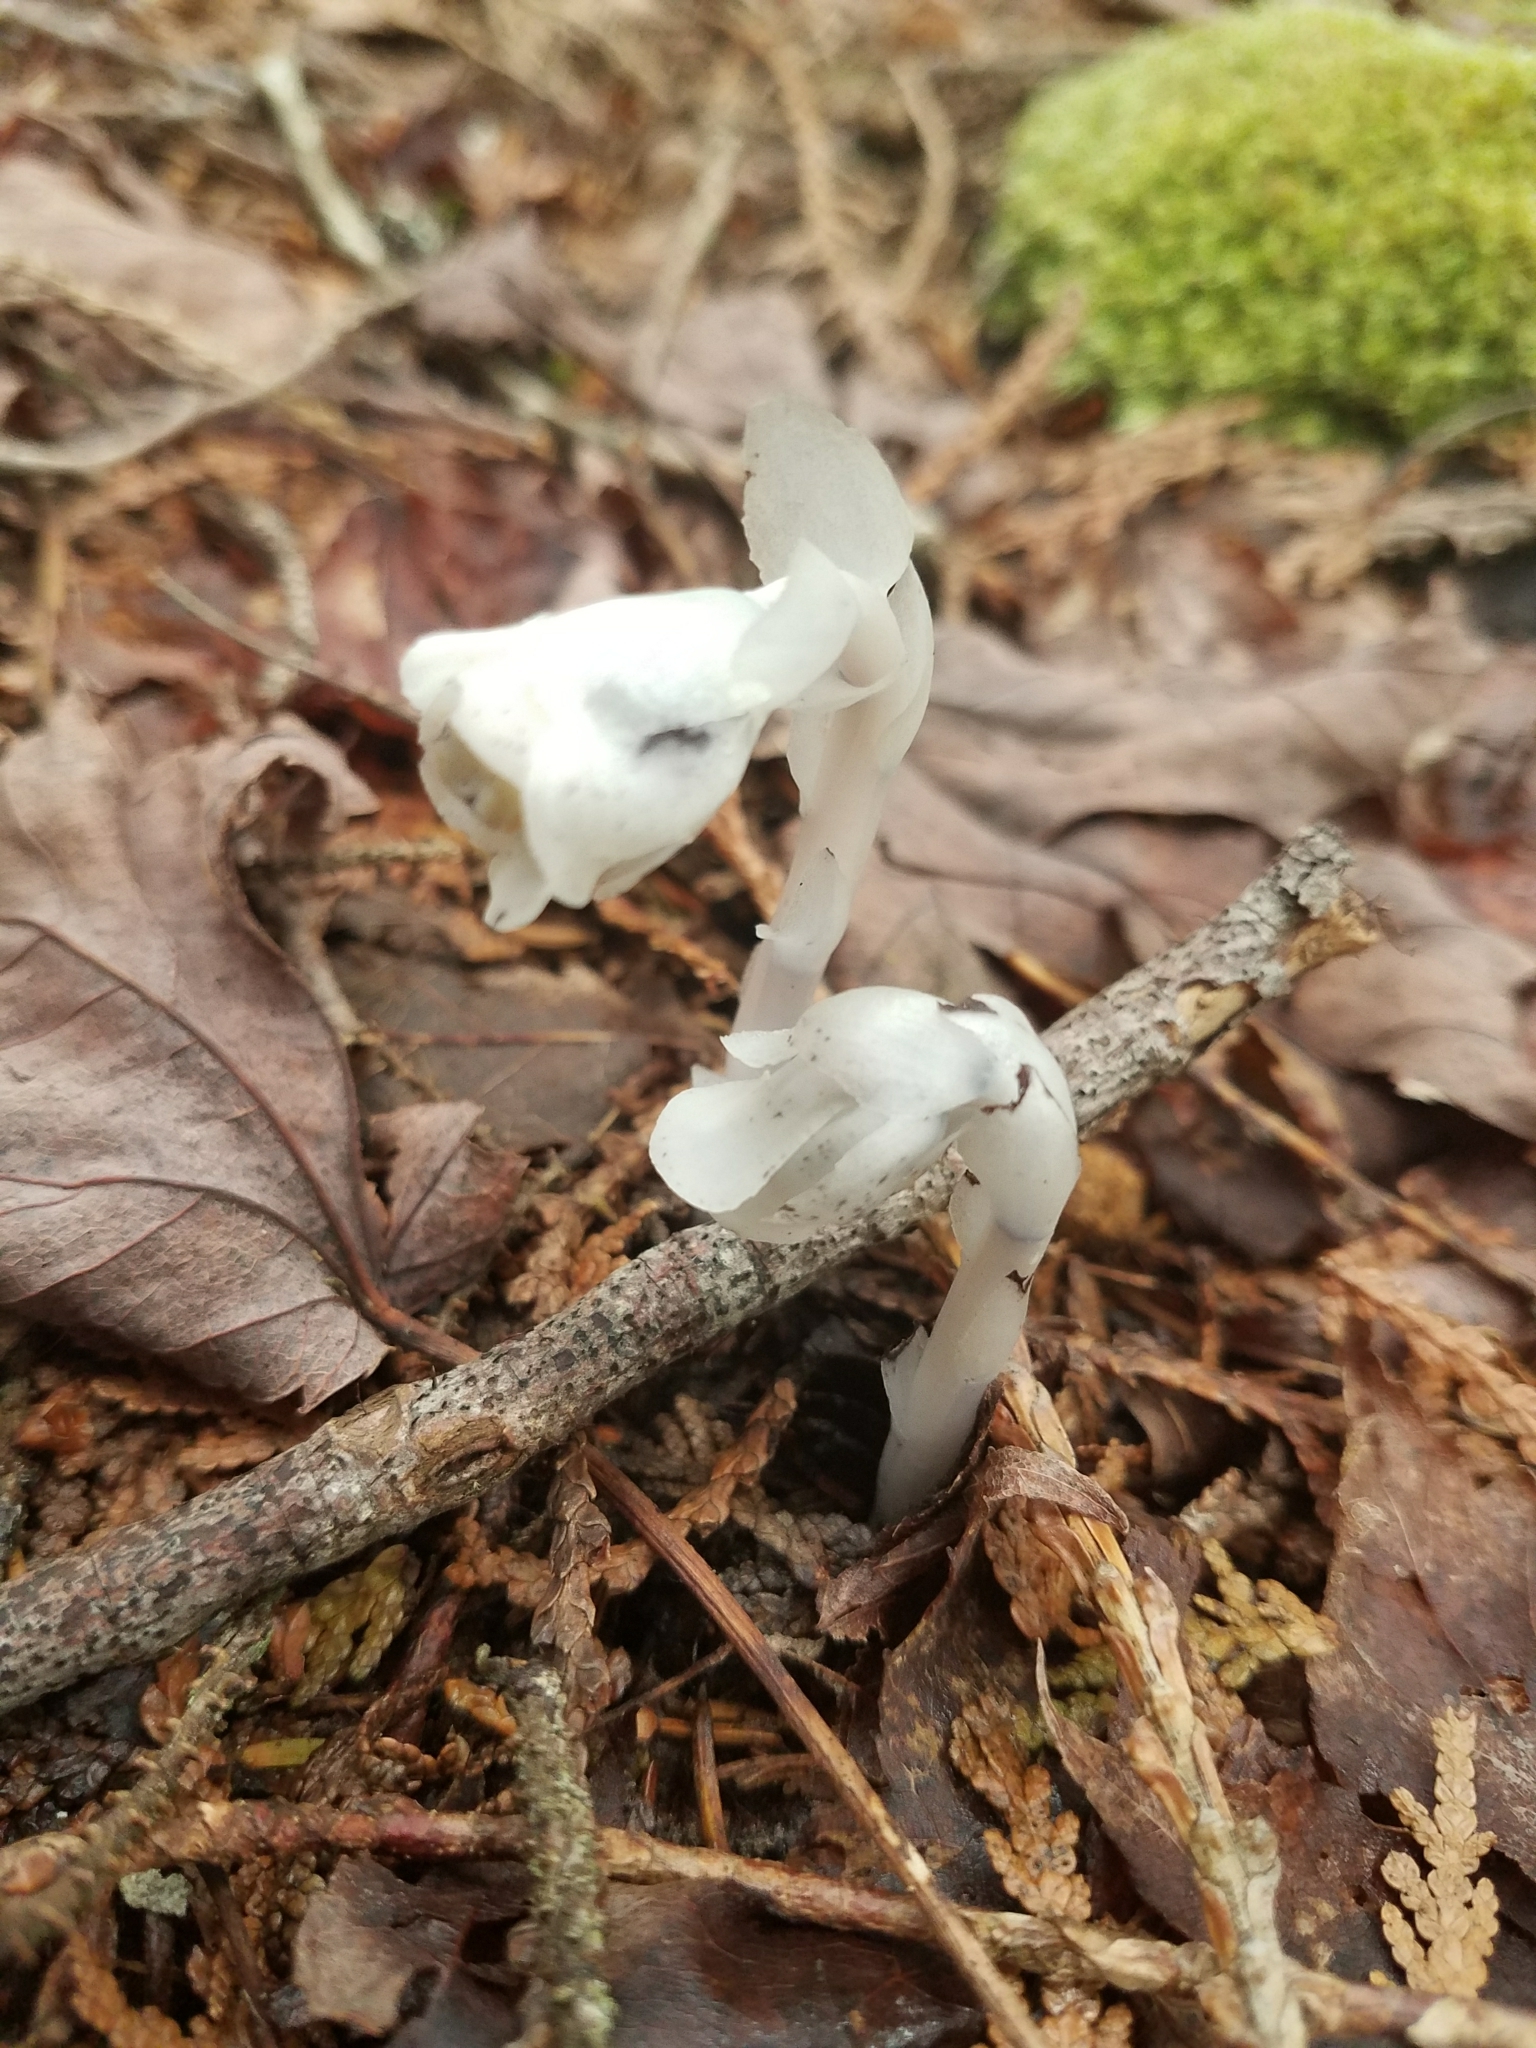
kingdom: Plantae
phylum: Tracheophyta
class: Magnoliopsida
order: Ericales
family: Ericaceae
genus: Monotropa
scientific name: Monotropa uniflora
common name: Convulsion root
